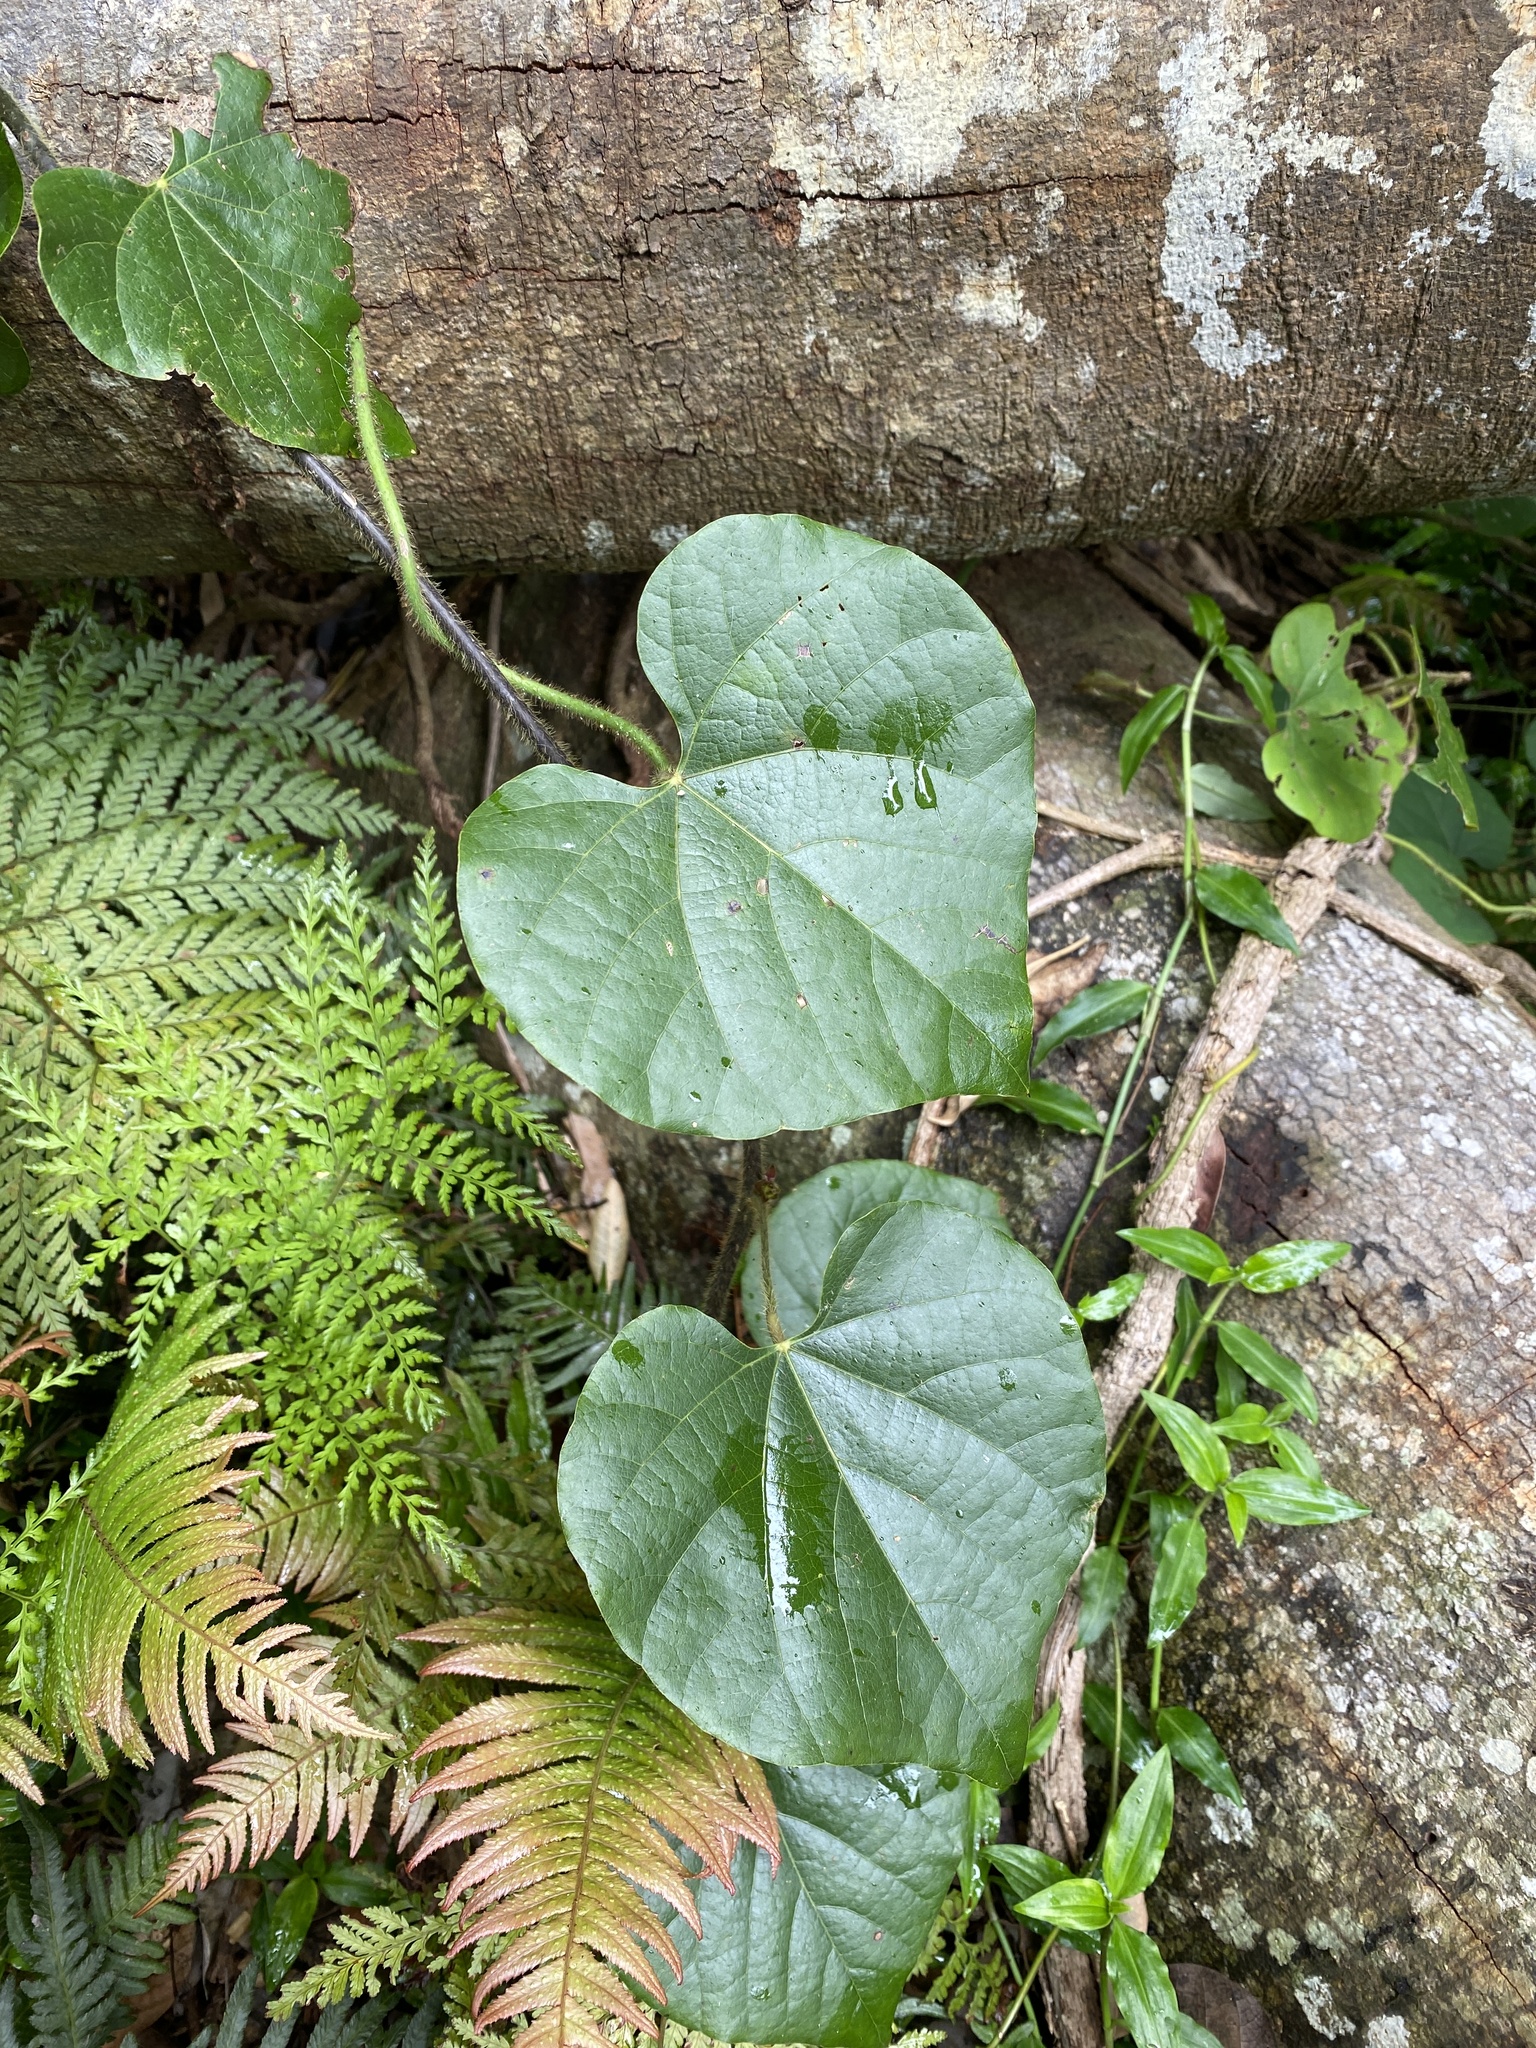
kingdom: Plantae
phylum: Tracheophyta
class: Magnoliopsida
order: Ranunculales
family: Menispermaceae
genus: Legnephora
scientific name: Legnephora moorei
